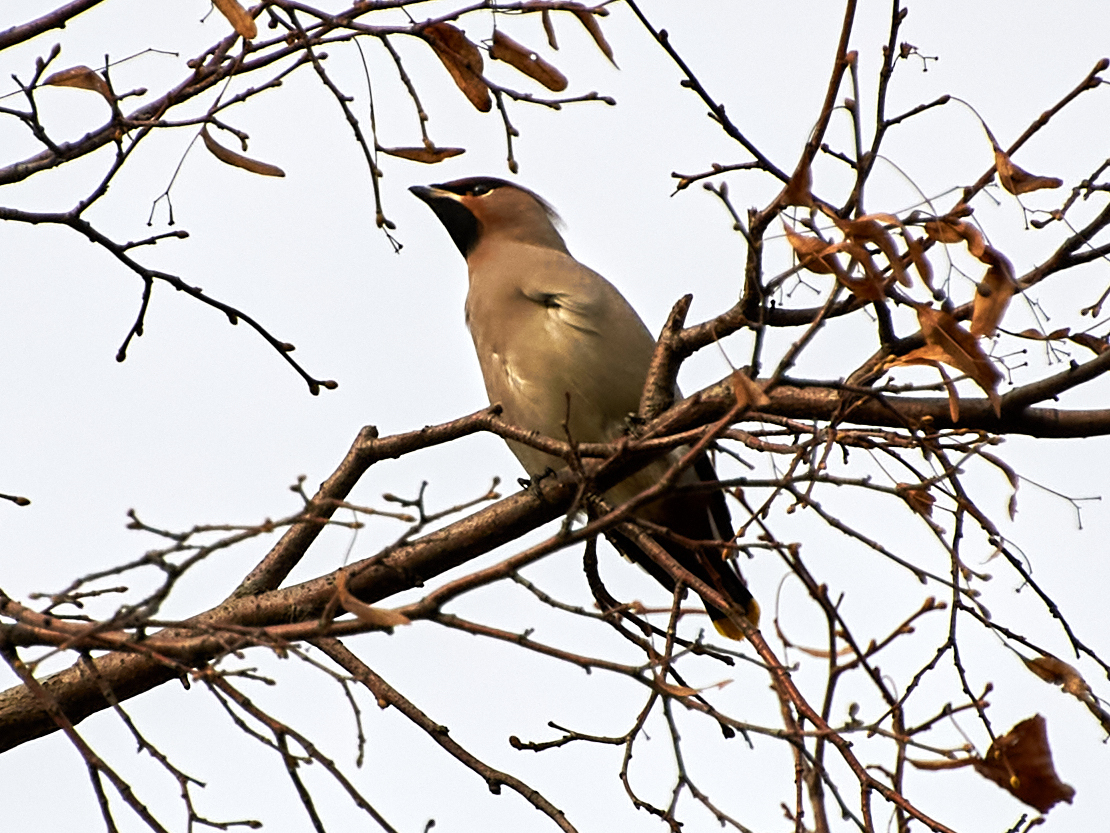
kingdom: Animalia
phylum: Chordata
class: Aves
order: Passeriformes
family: Bombycillidae
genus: Bombycilla
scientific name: Bombycilla garrulus
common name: Bohemian waxwing
